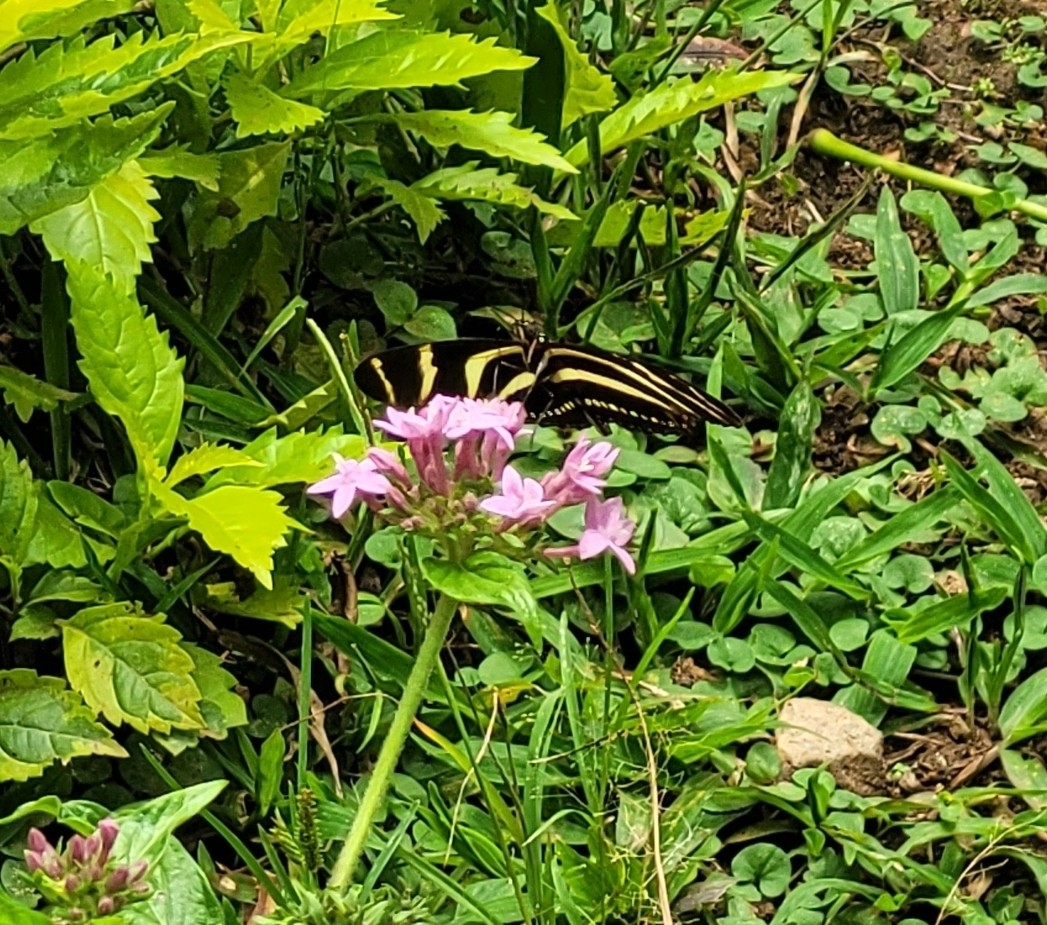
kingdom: Animalia
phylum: Arthropoda
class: Insecta
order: Lepidoptera
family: Nymphalidae
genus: Heliconius
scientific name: Heliconius charithonia
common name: Zebra long wing
